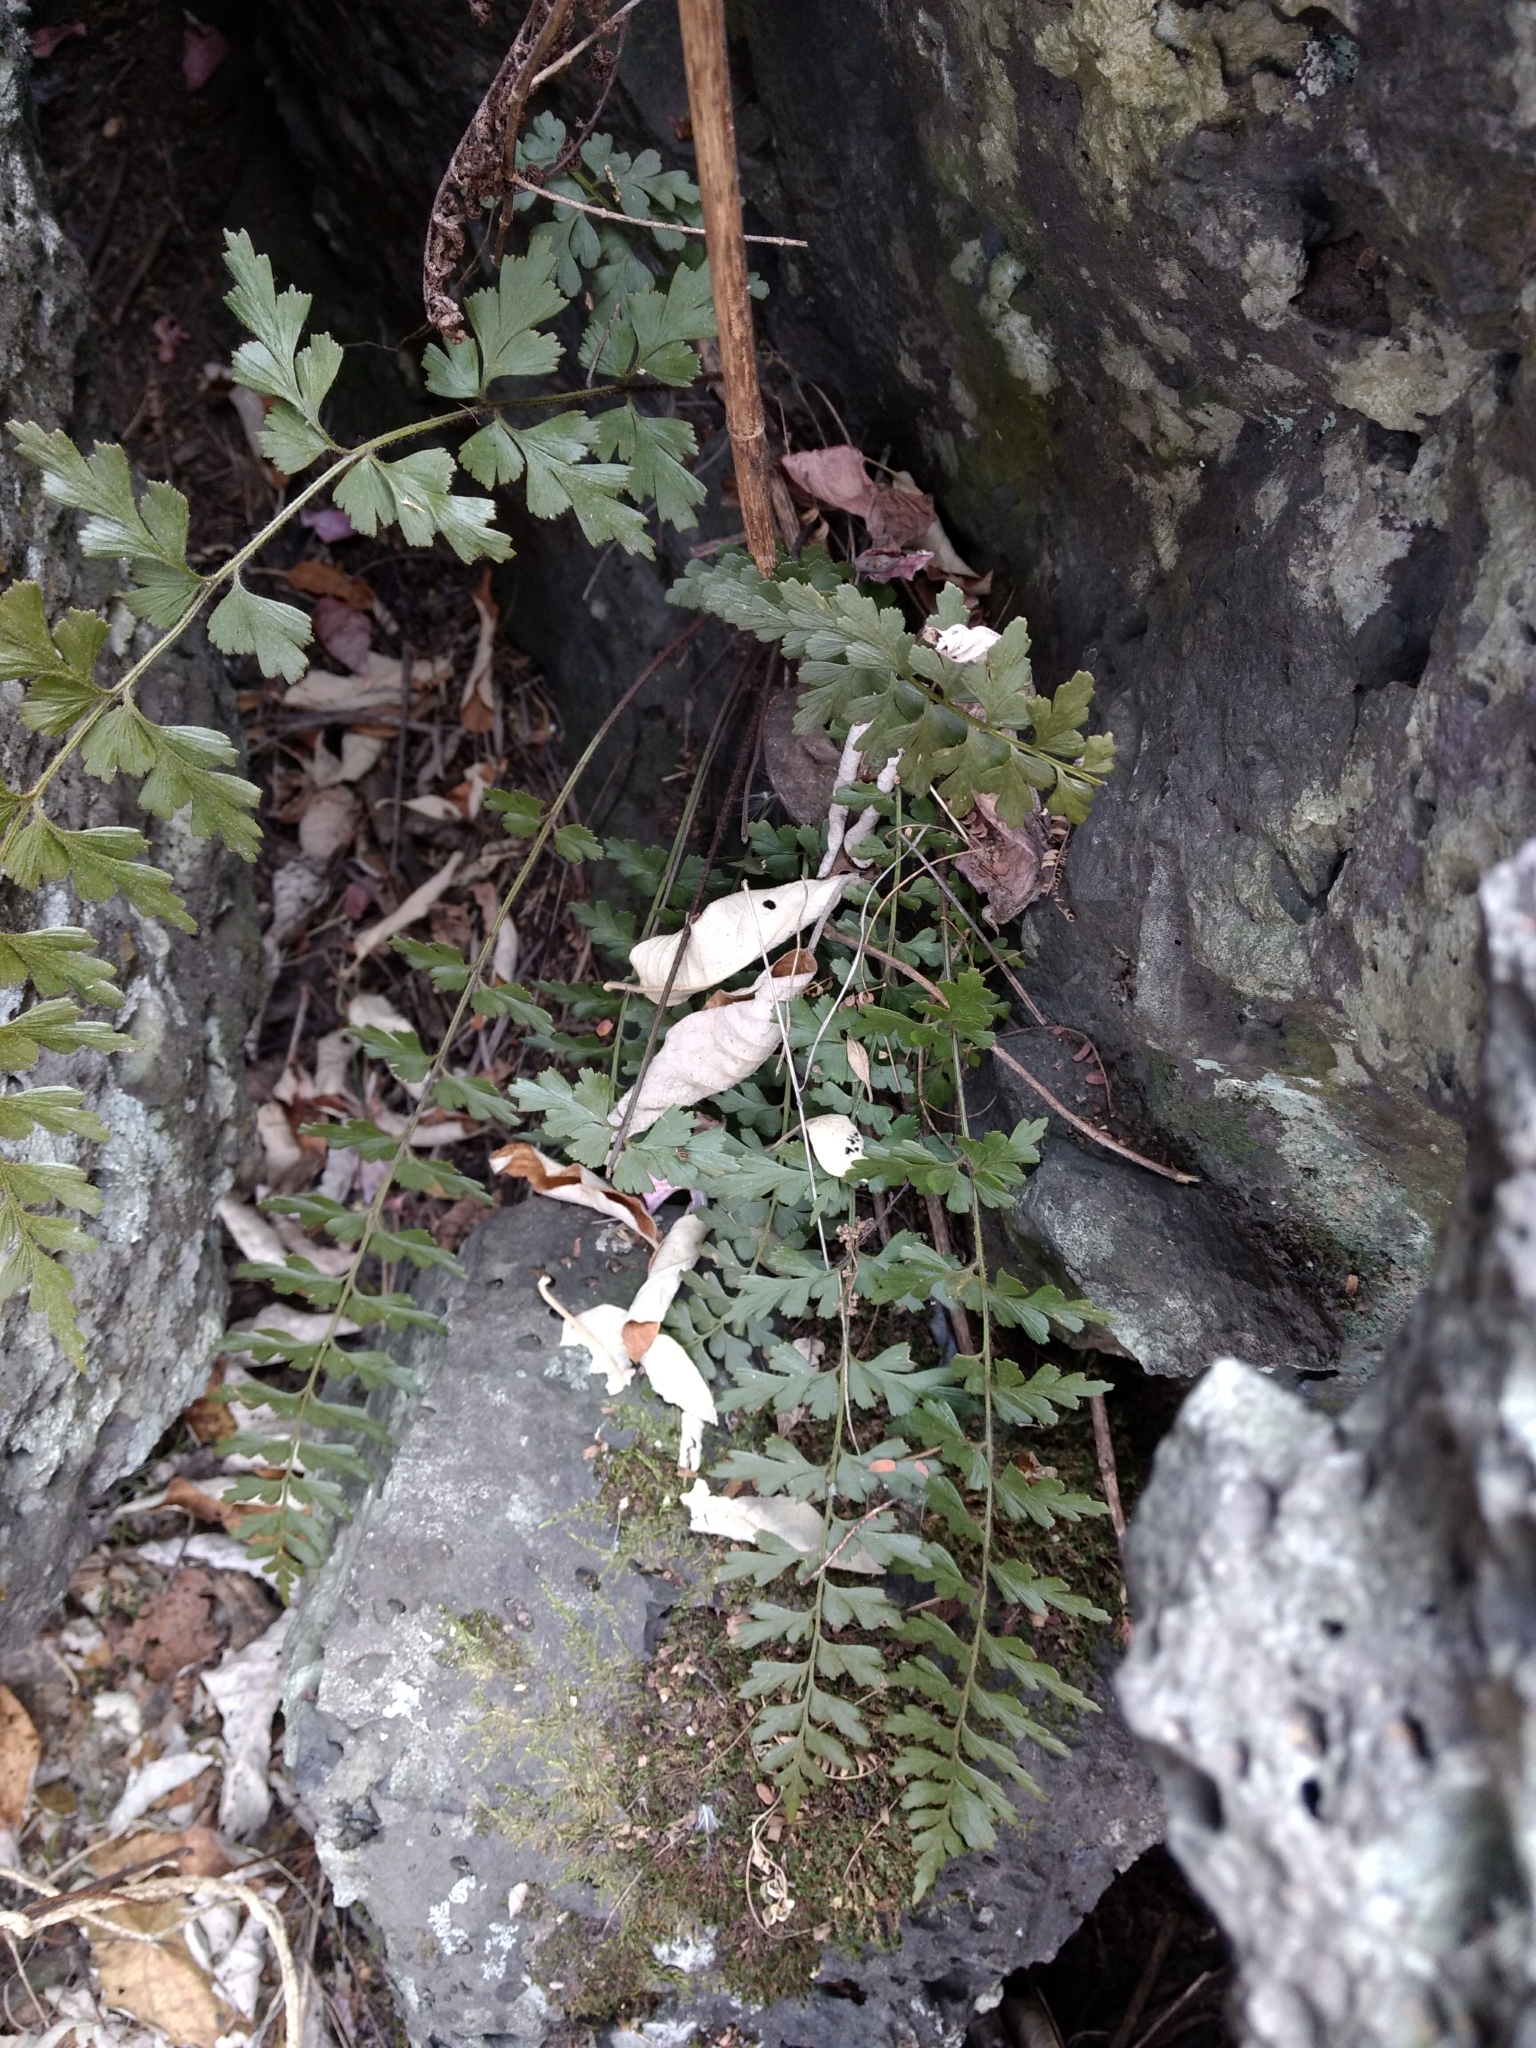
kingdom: Plantae
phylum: Tracheophyta
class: Polypodiopsida
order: Polypodiales
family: Aspleniaceae
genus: Asplenium
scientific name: Asplenium praemorsum
